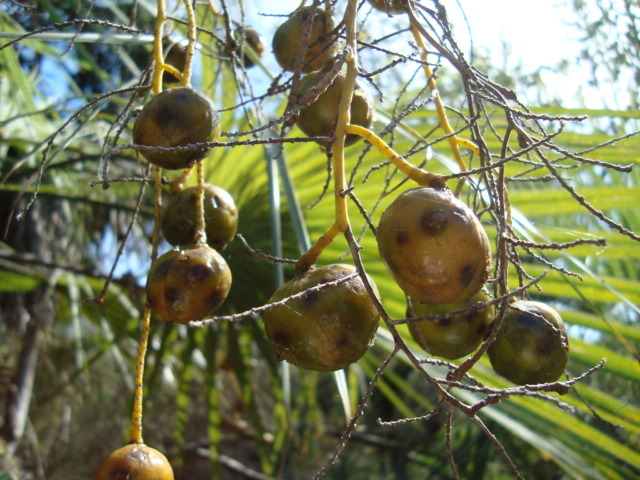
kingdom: Plantae
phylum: Tracheophyta
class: Liliopsida
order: Arecales
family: Arecaceae
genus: Brahea
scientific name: Brahea aculeata
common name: Sinaloa hesper palm
